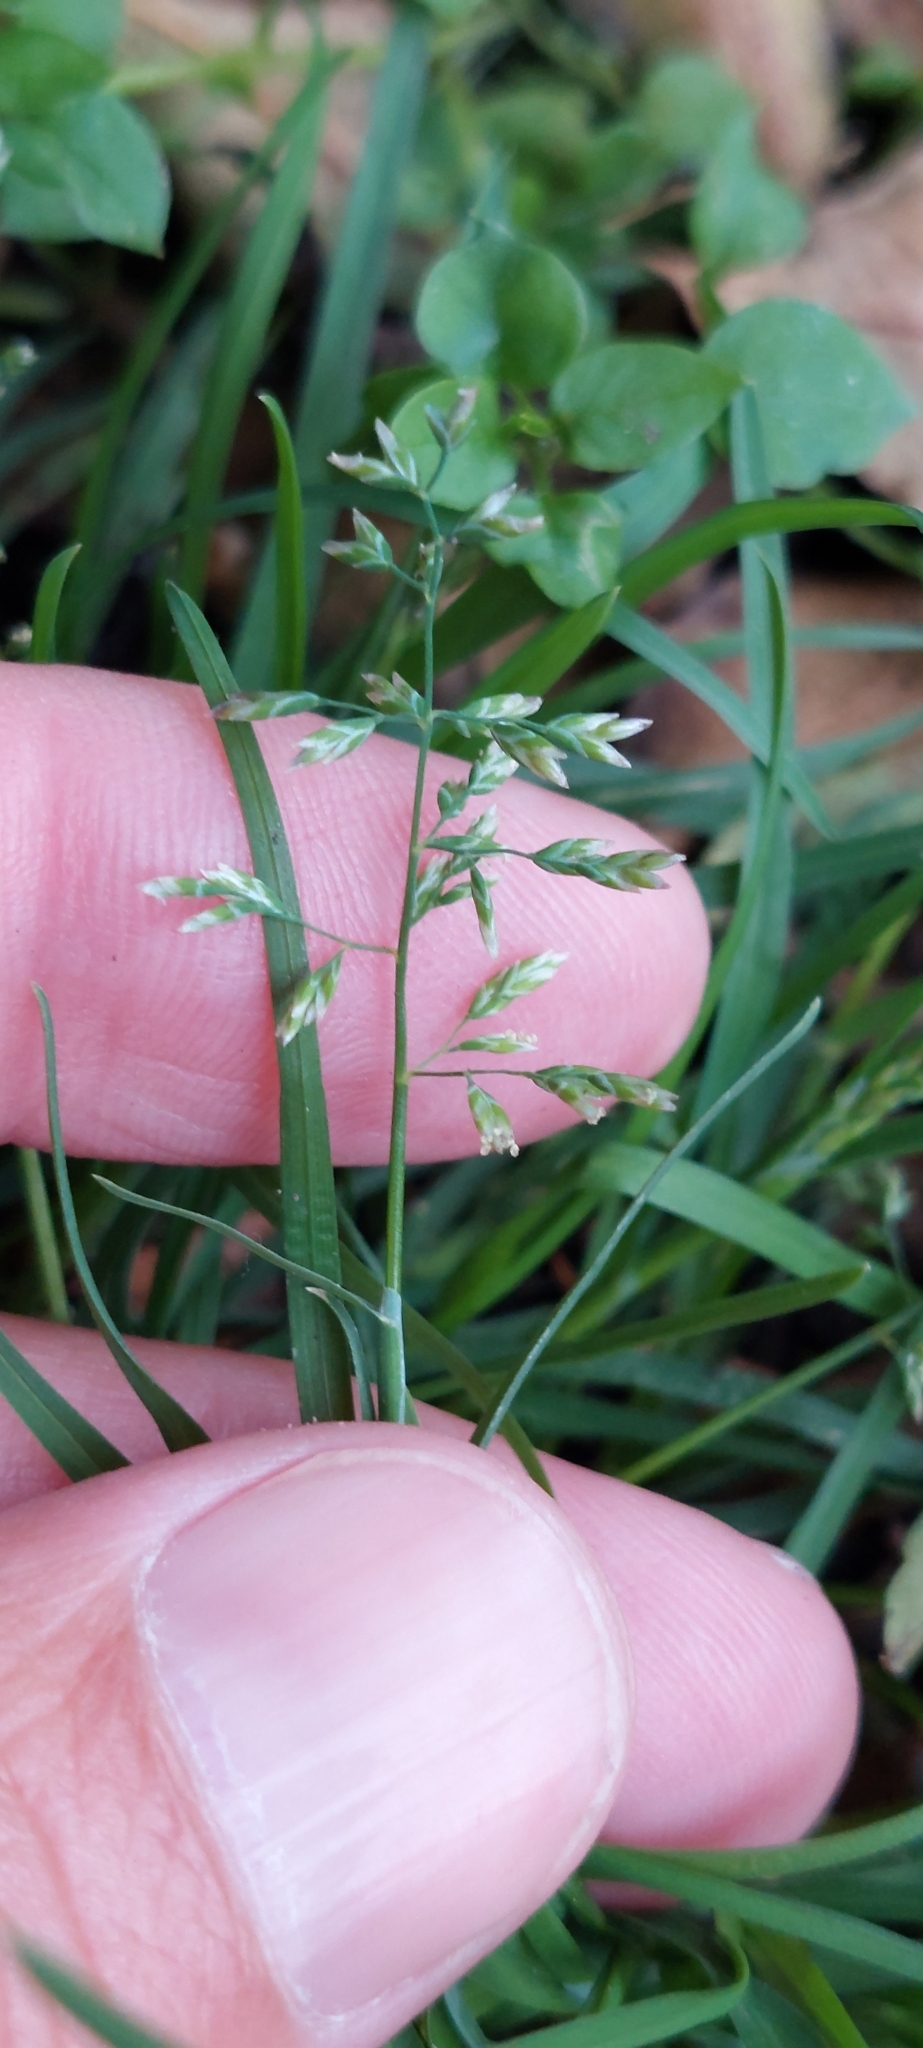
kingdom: Plantae
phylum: Tracheophyta
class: Liliopsida
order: Poales
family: Poaceae
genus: Poa
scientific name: Poa annua
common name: Annual bluegrass
